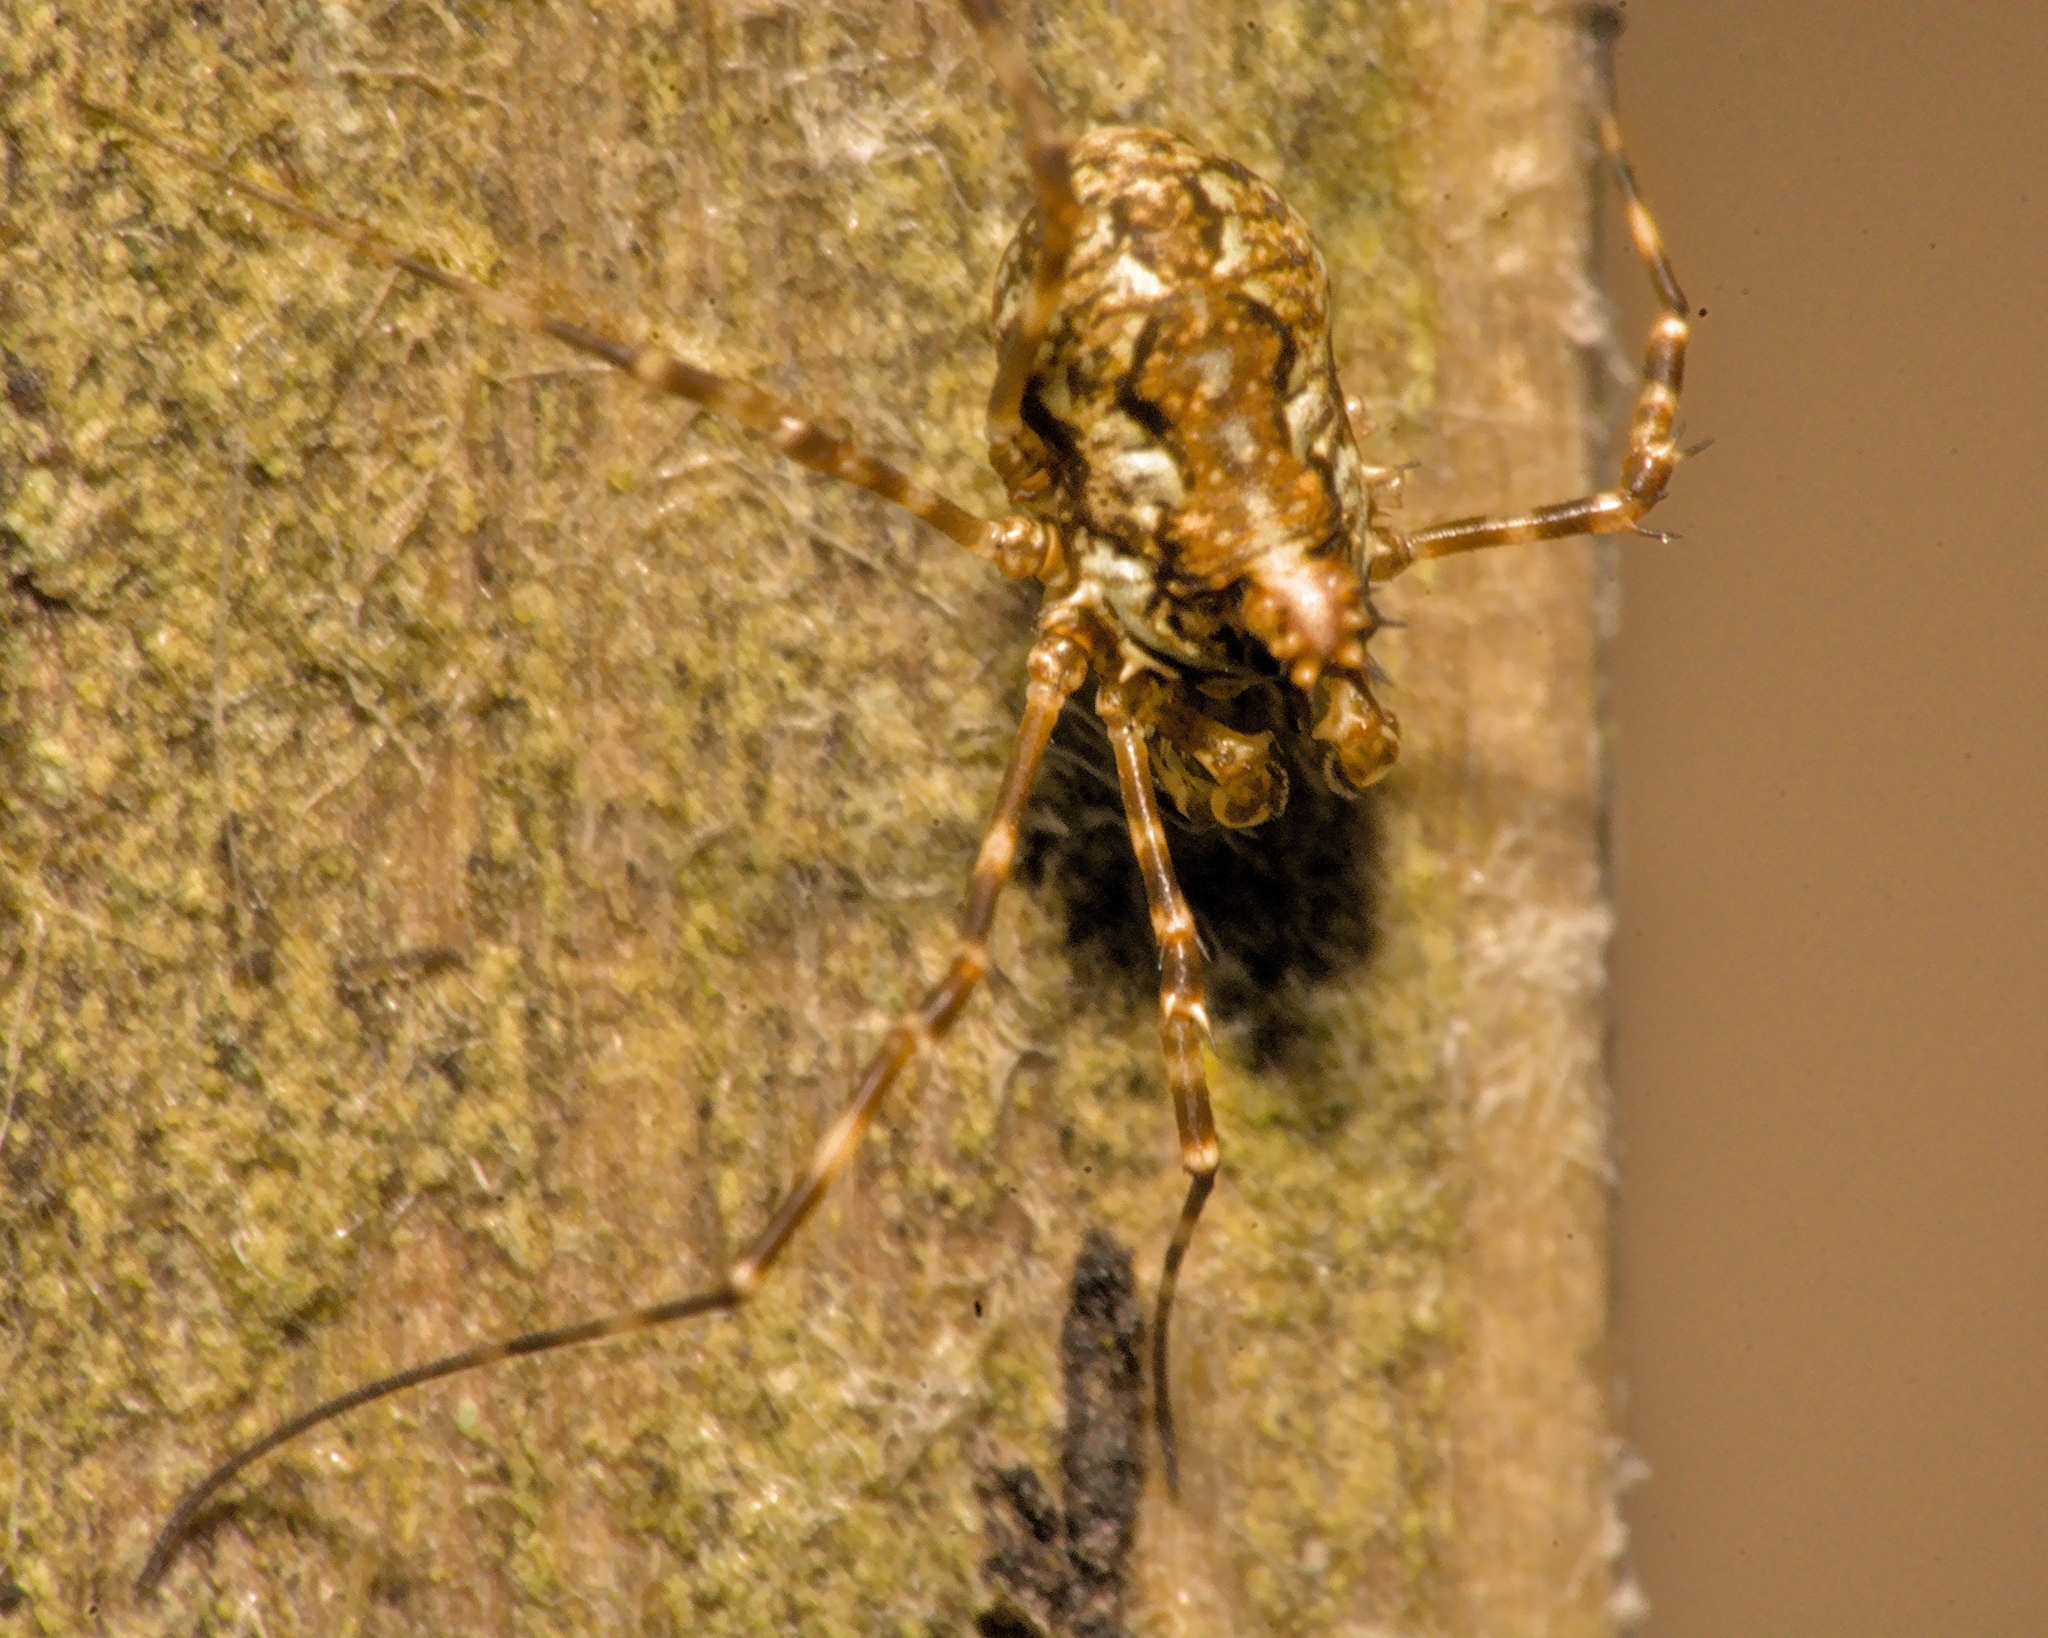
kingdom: Animalia
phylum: Arthropoda
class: Arachnida
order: Opiliones
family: Phalangiidae
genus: Megabunus
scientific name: Megabunus diadema
